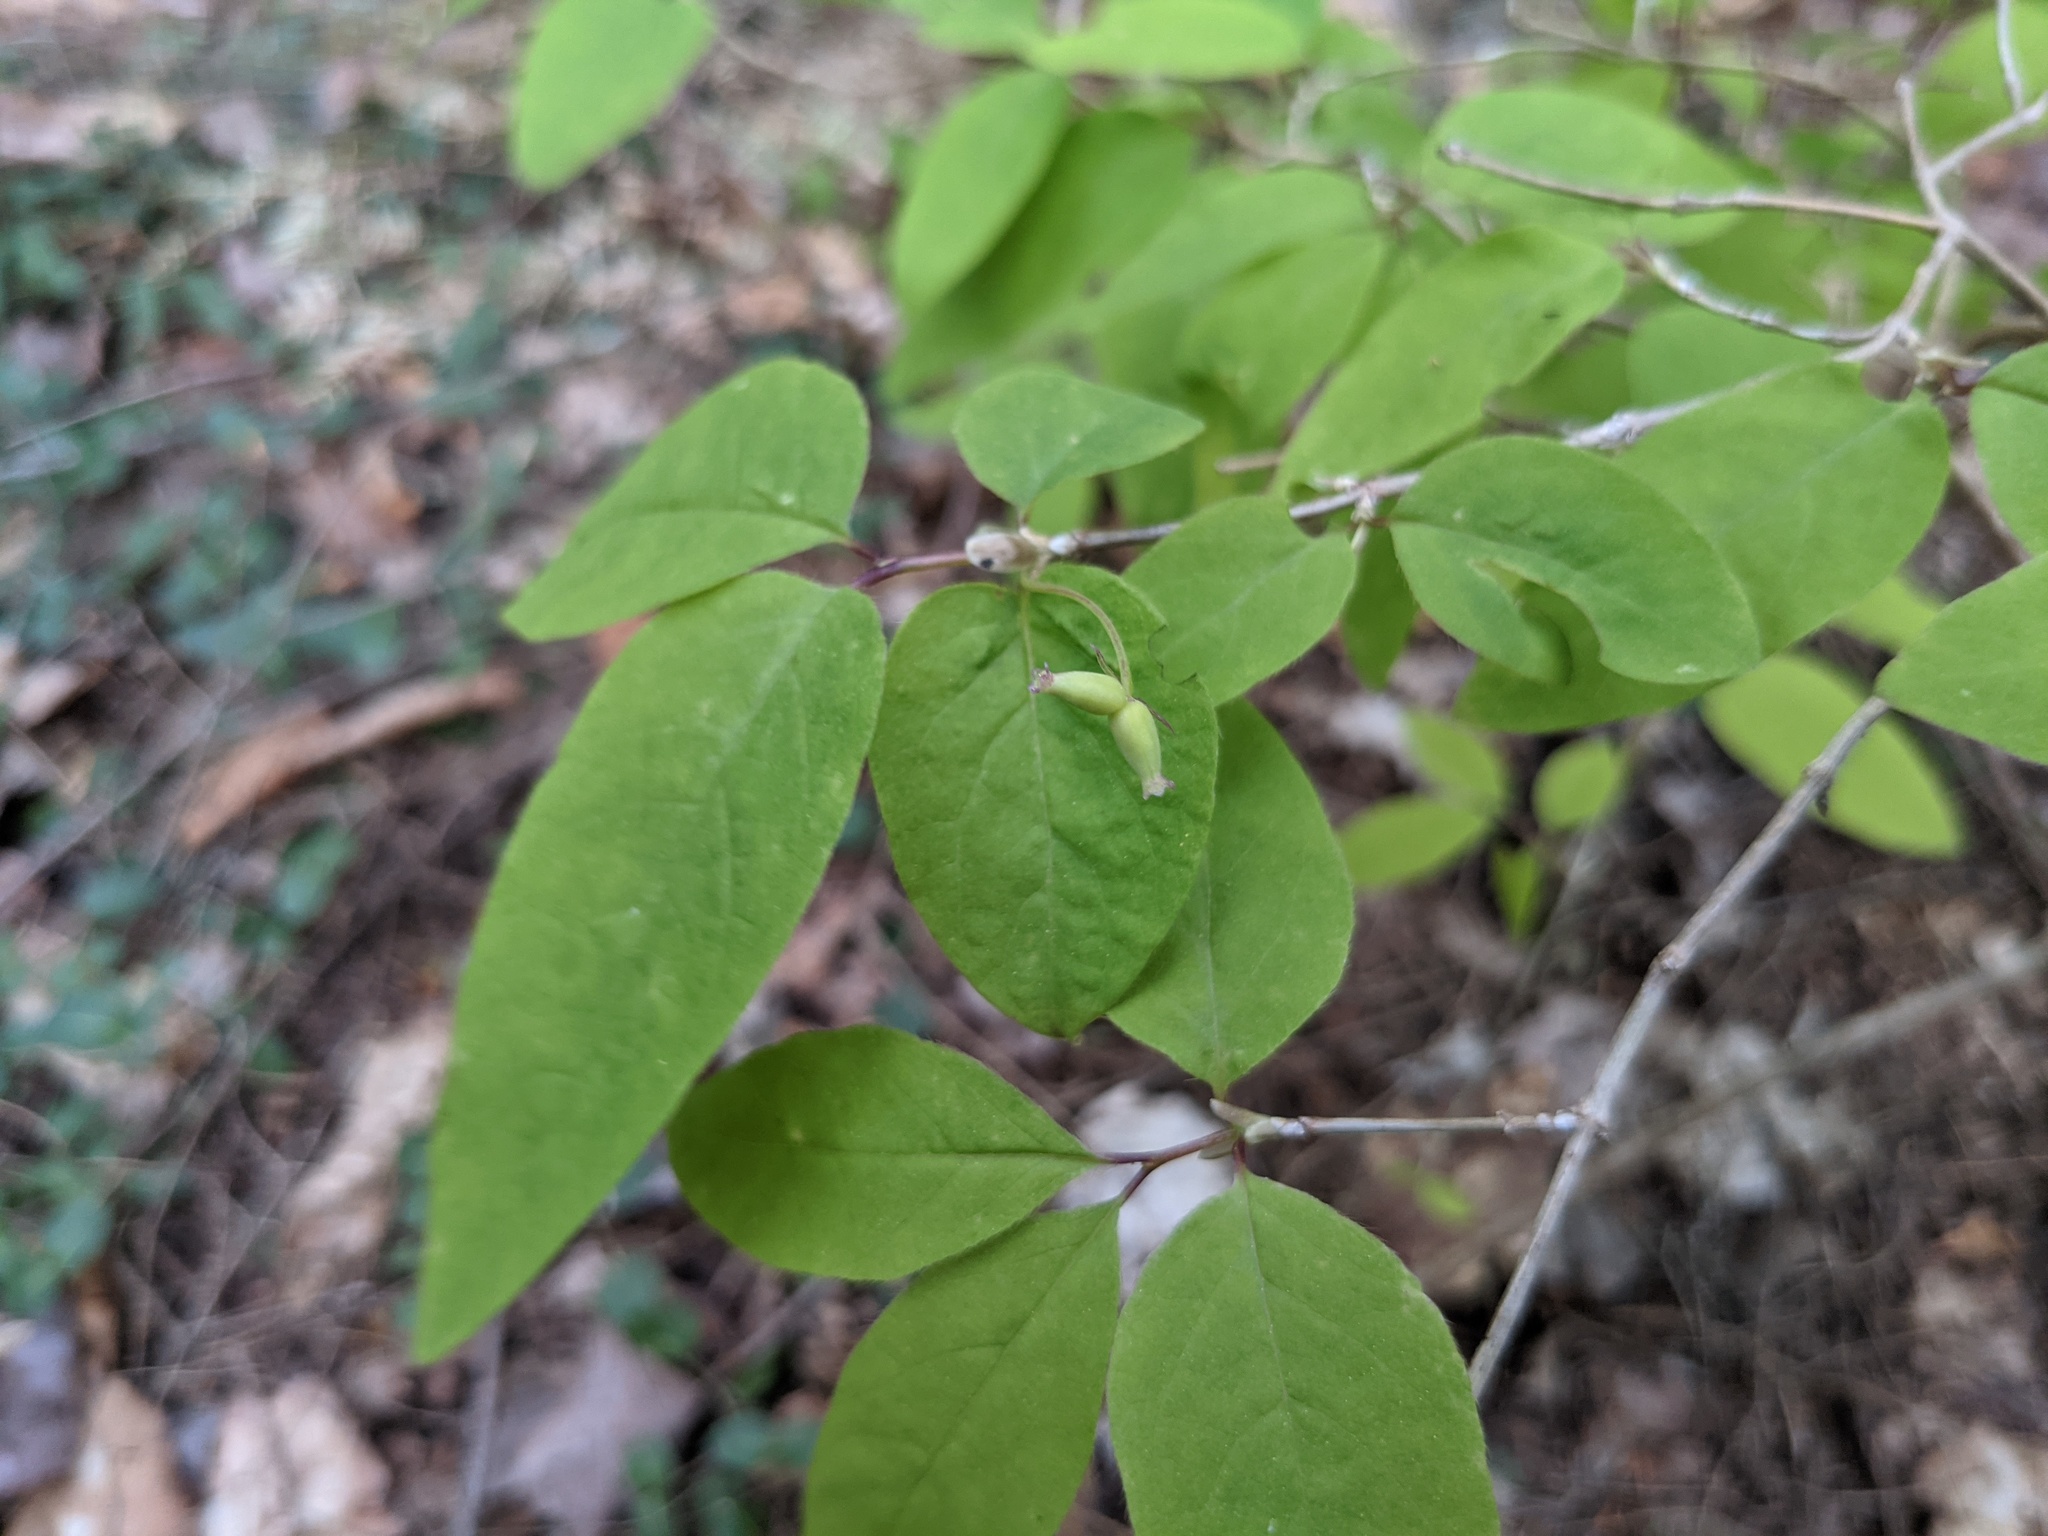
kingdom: Plantae
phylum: Tracheophyta
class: Magnoliopsida
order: Dipsacales
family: Caprifoliaceae
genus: Lonicera
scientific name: Lonicera canadensis
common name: American fly-honeysuckle
